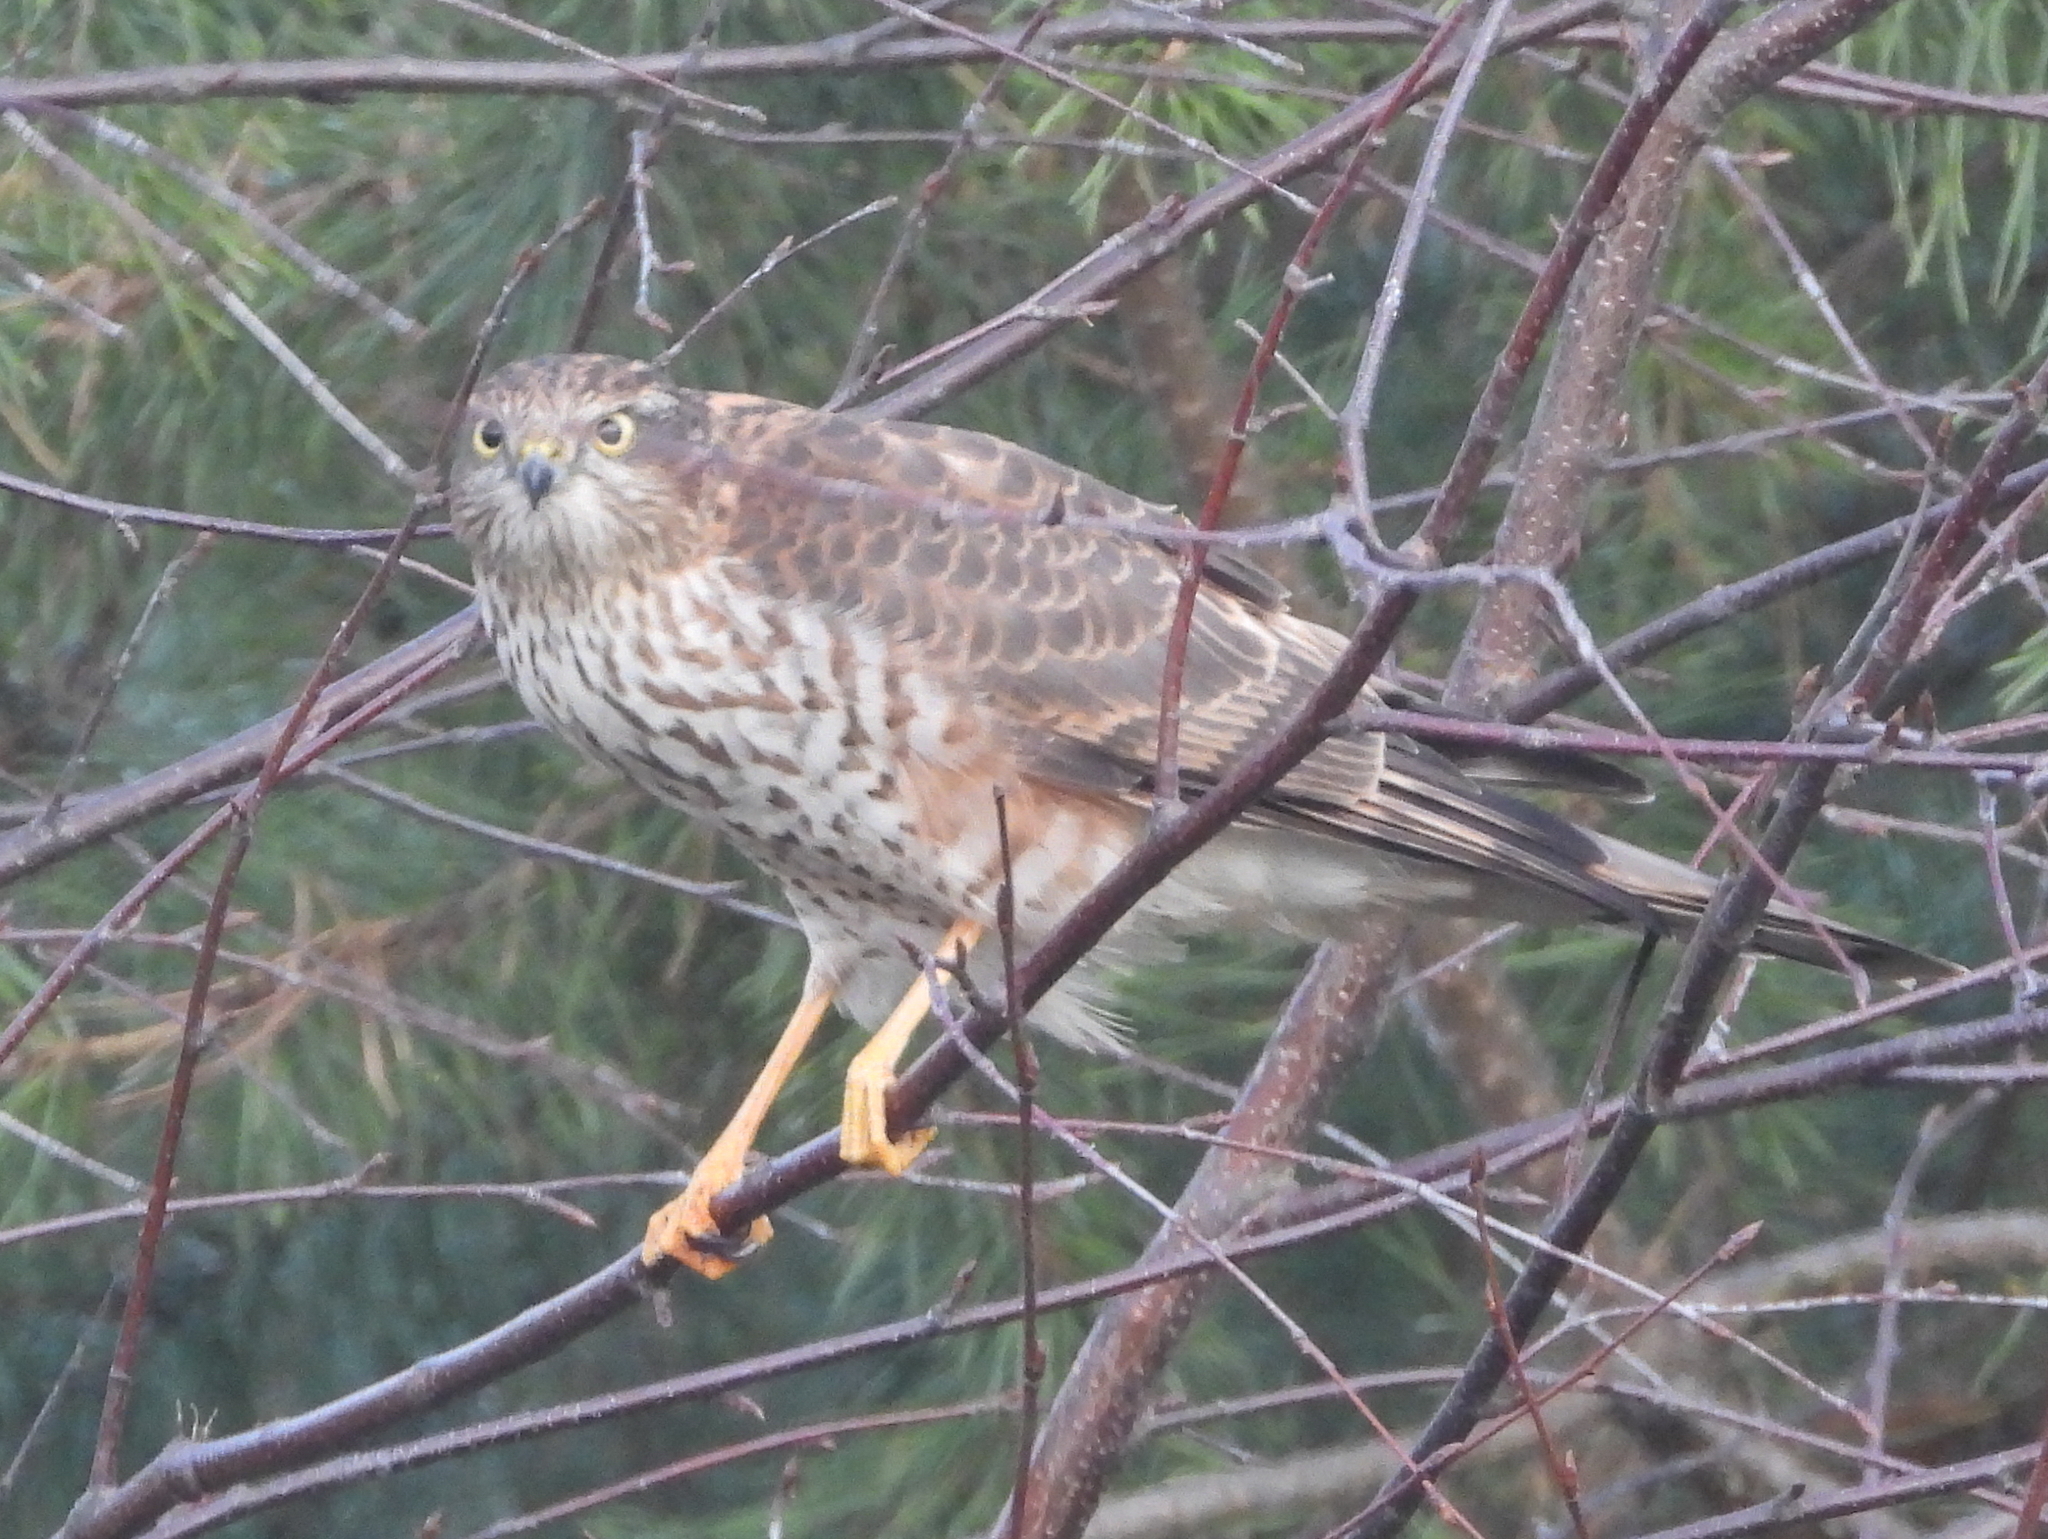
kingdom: Animalia
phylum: Chordata
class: Aves
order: Accipitriformes
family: Accipitridae
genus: Accipiter
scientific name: Accipiter nisus
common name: Eurasian sparrowhawk
